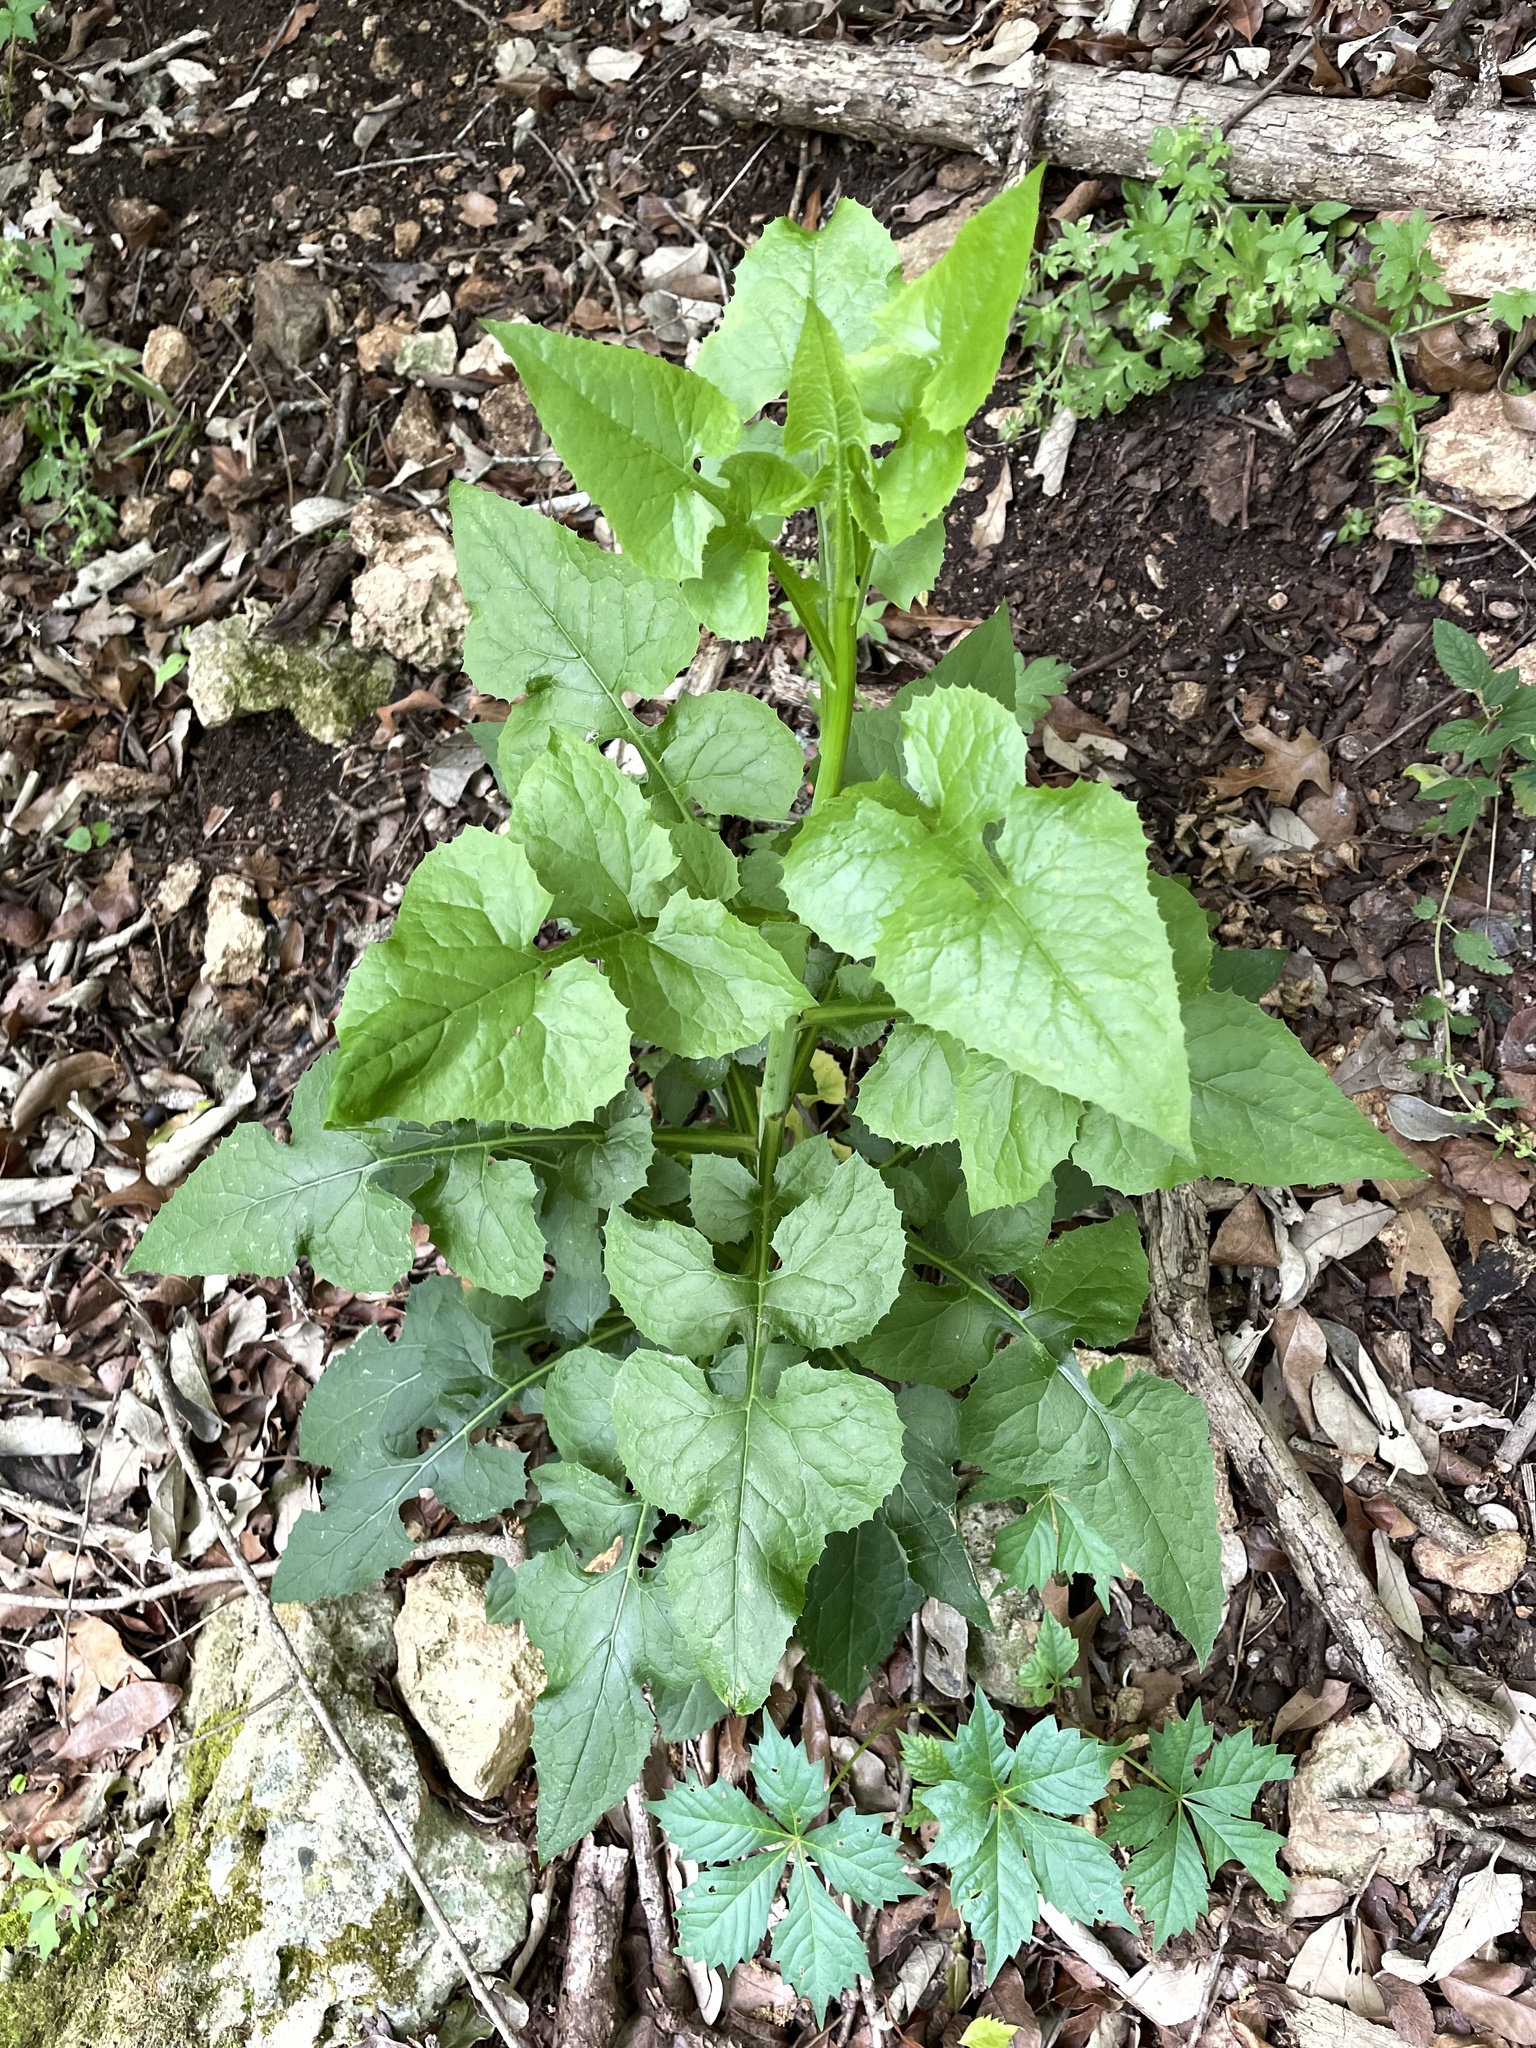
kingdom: Plantae
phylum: Tracheophyta
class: Magnoliopsida
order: Asterales
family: Asteraceae
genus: Lactuca
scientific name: Lactuca floridana
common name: Woodland lettuce
